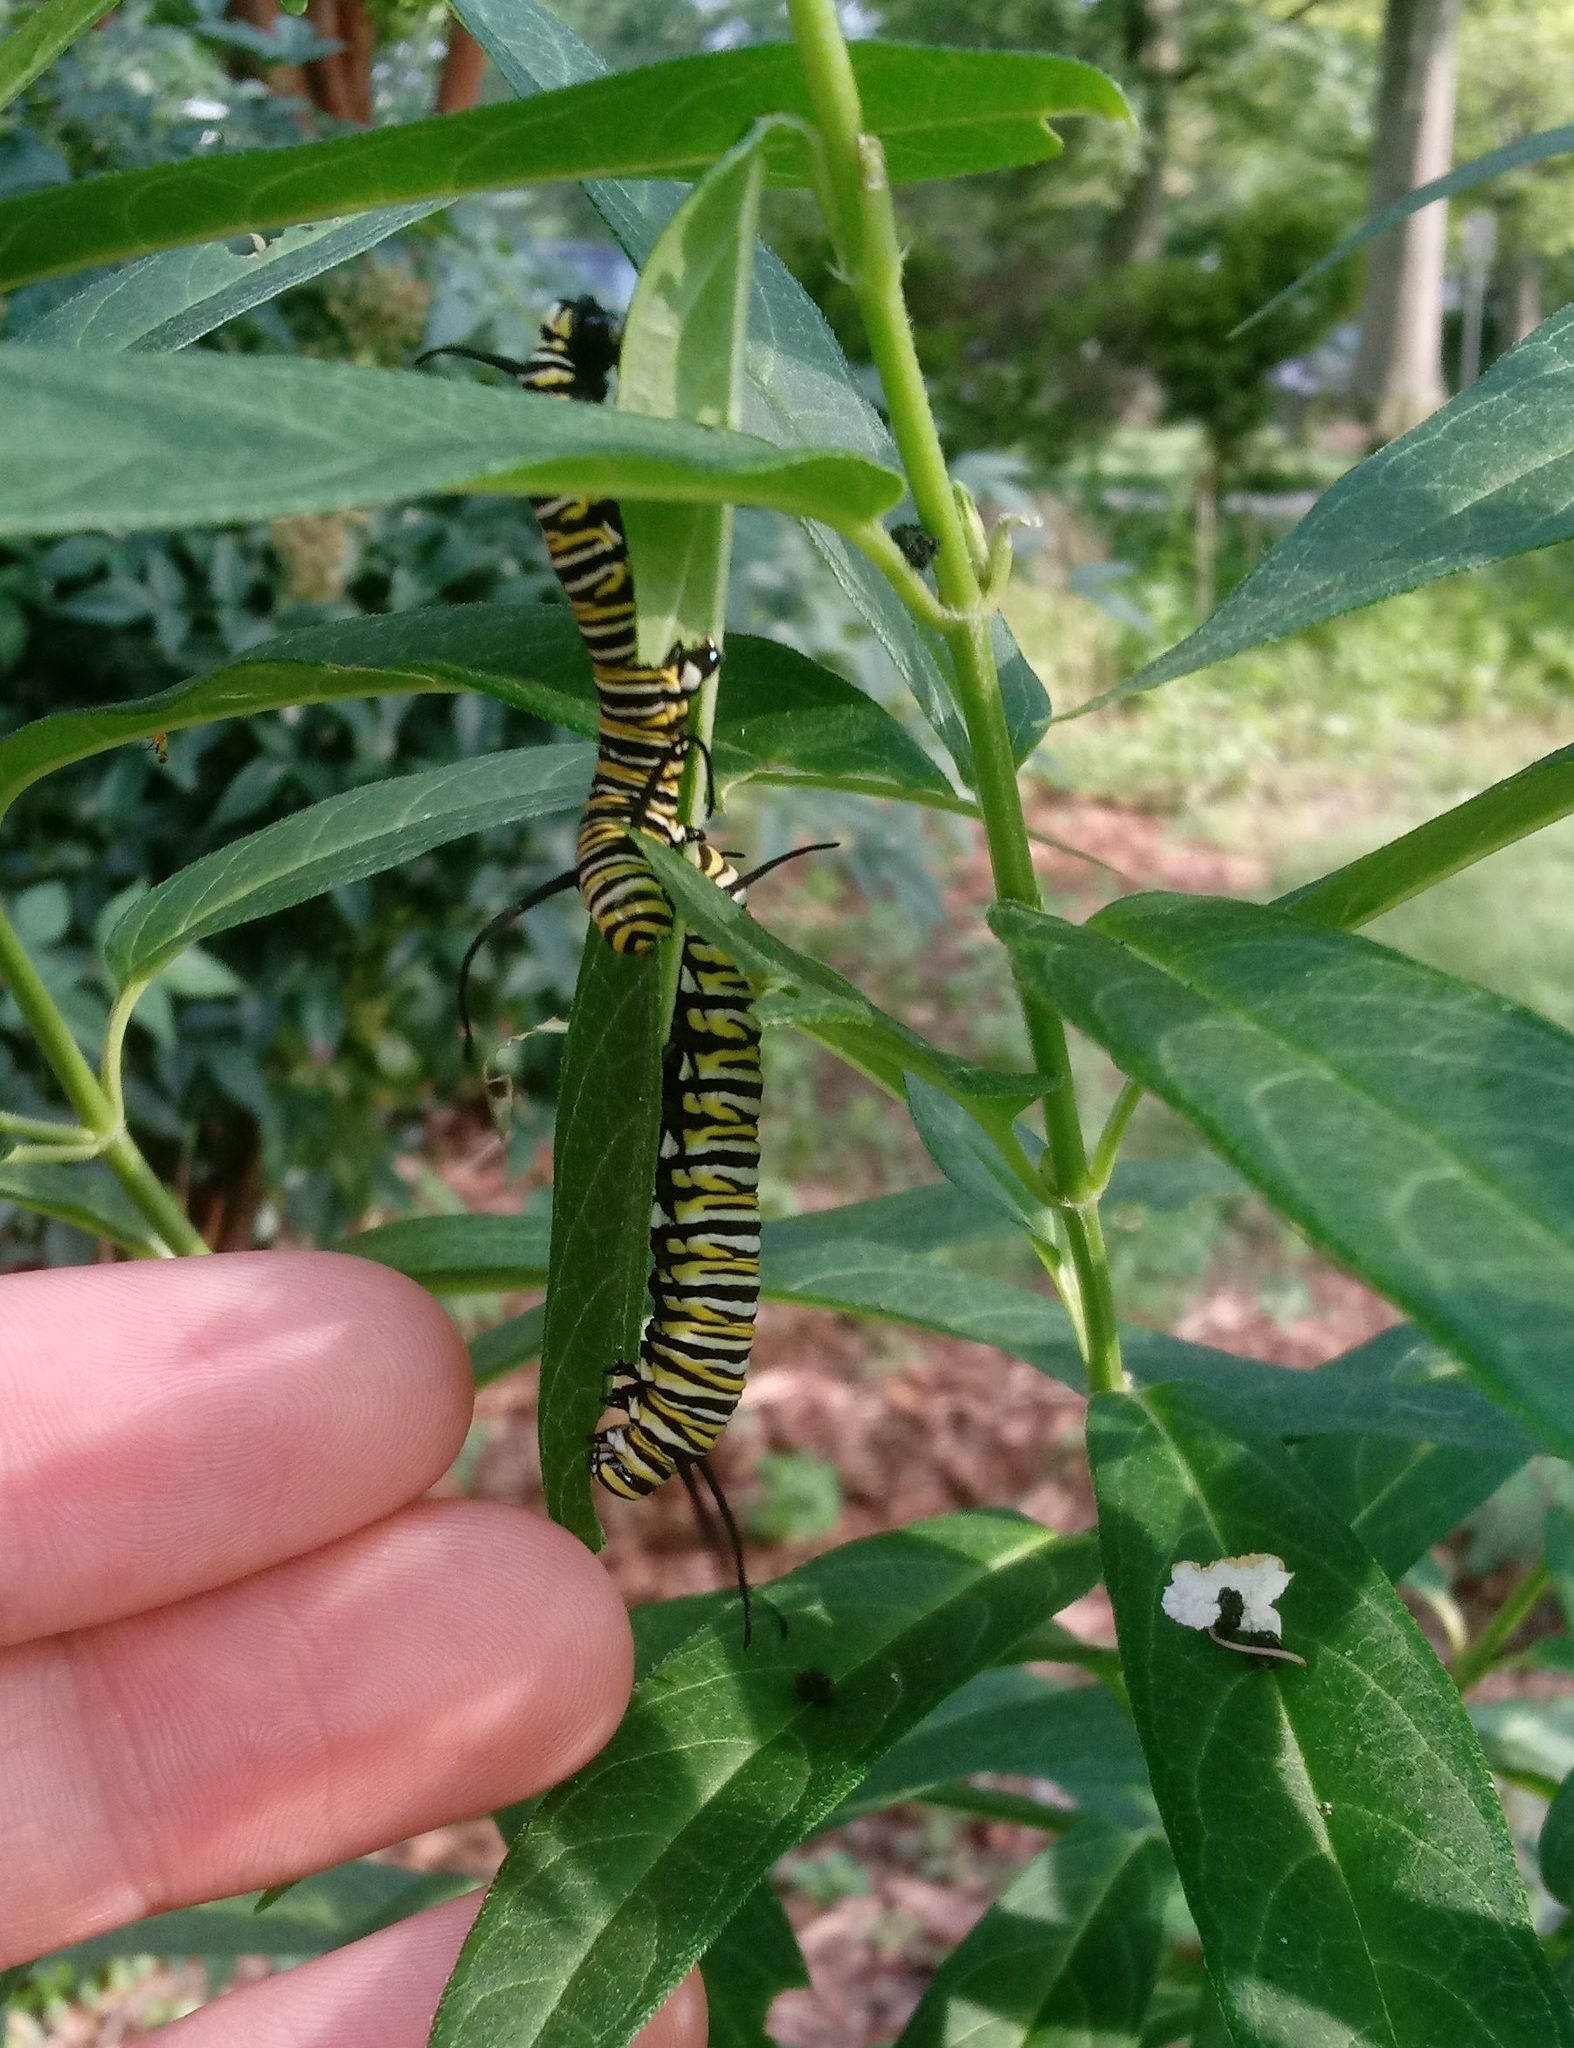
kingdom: Animalia
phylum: Arthropoda
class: Insecta
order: Lepidoptera
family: Nymphalidae
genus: Danaus
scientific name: Danaus plexippus
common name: Monarch
